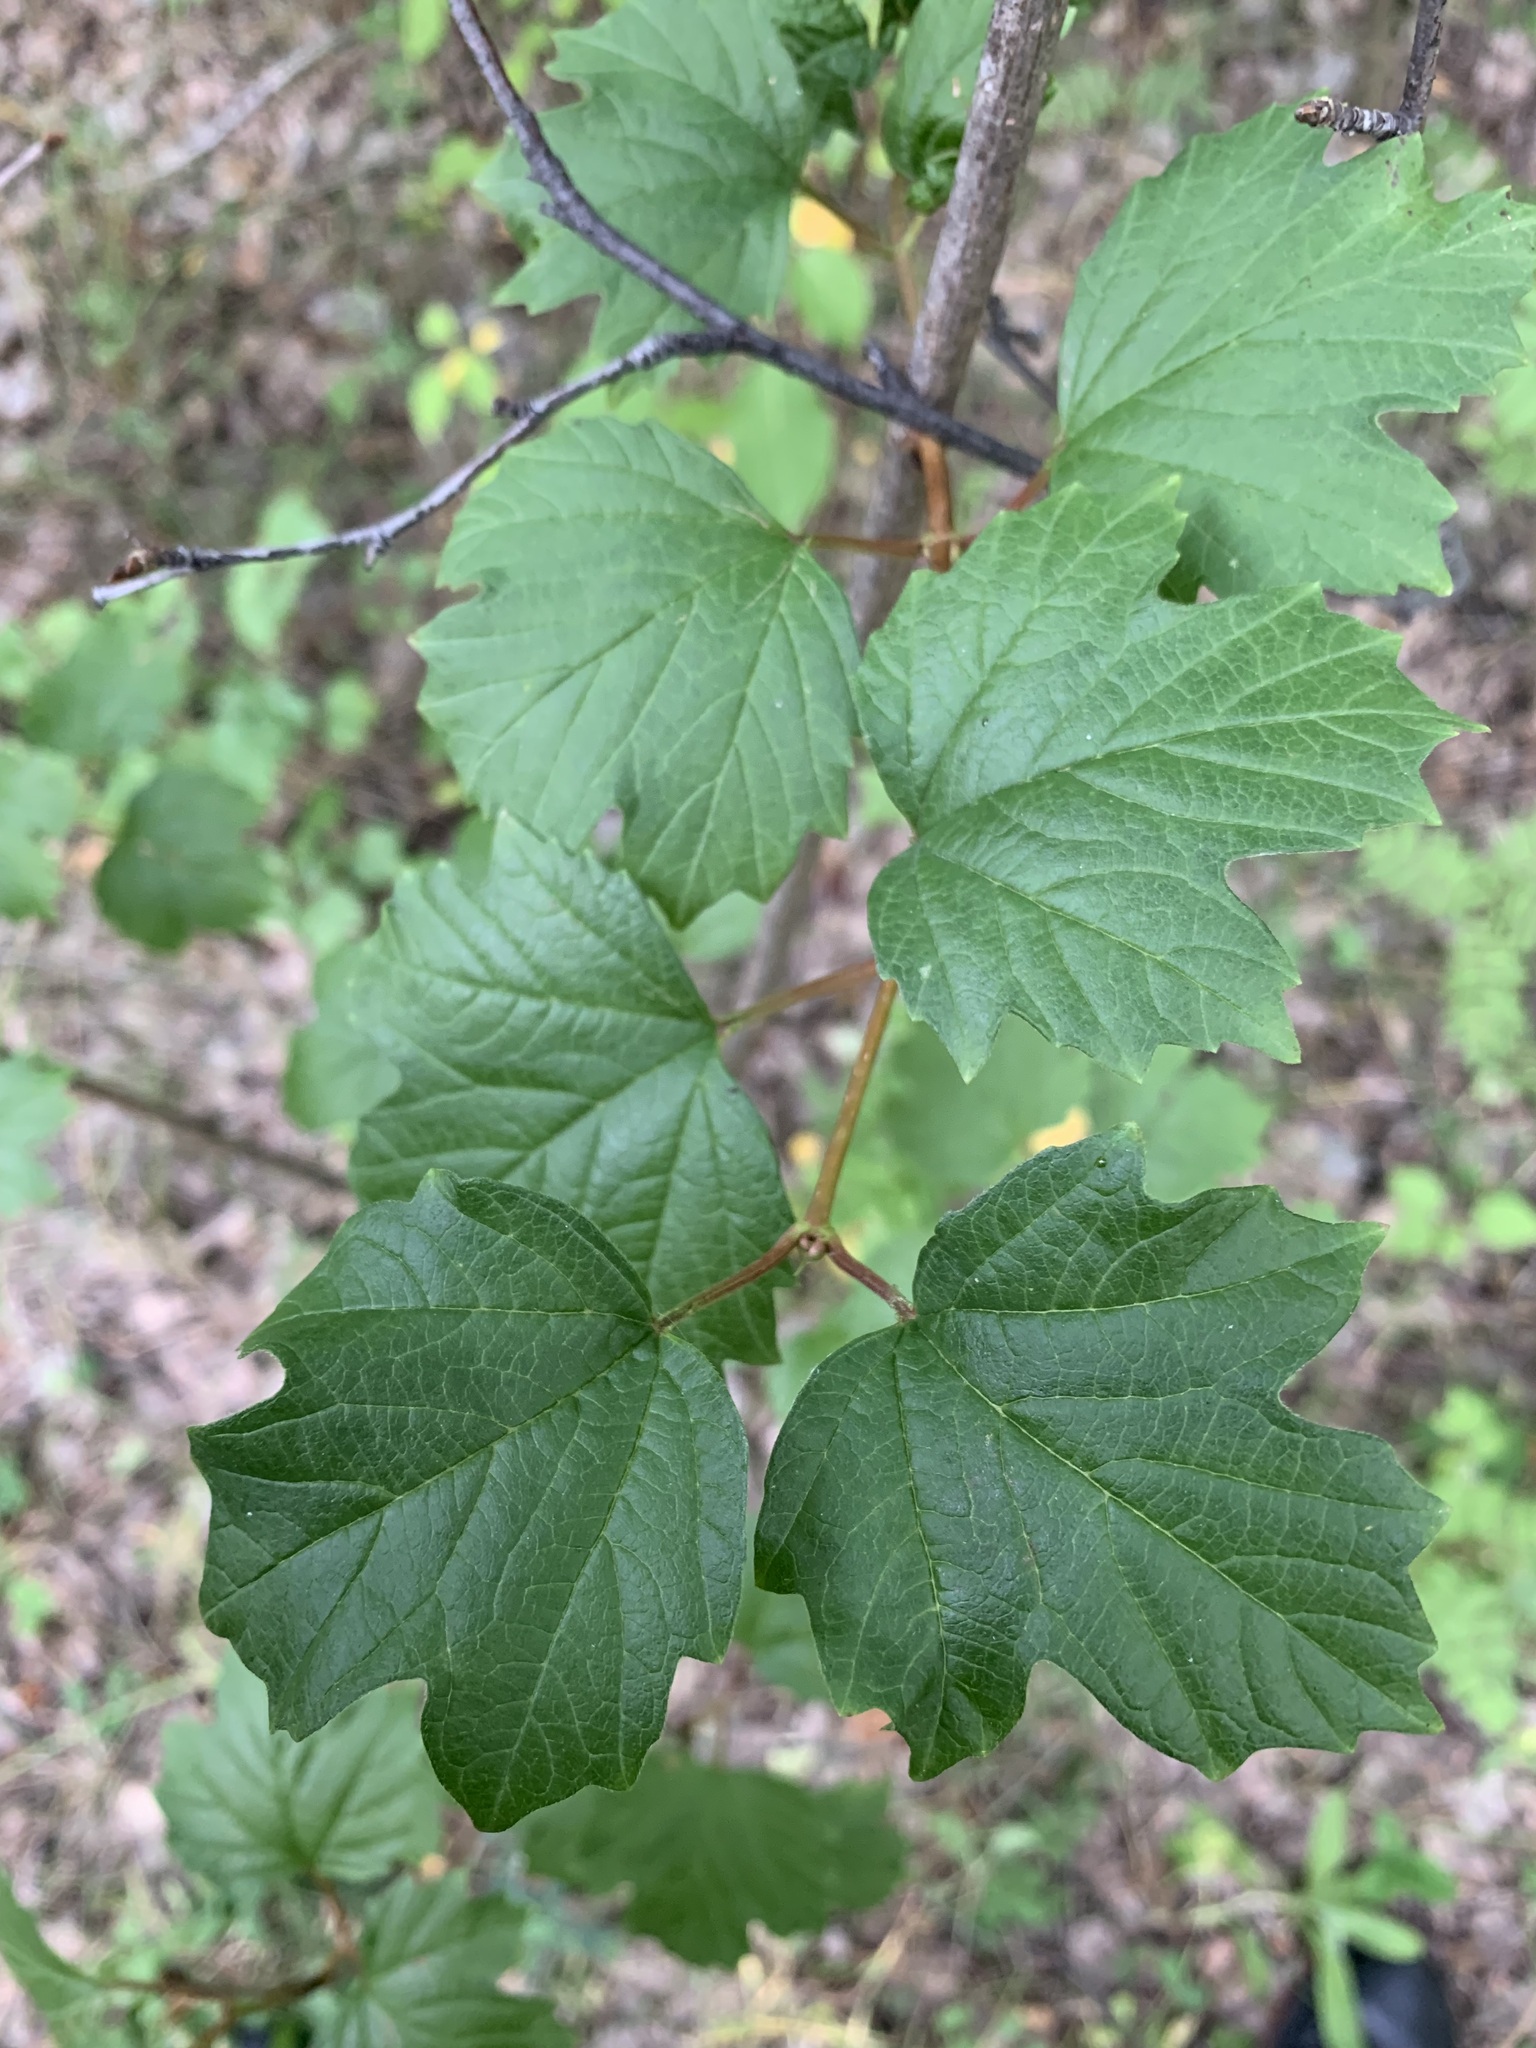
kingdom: Plantae
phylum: Tracheophyta
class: Magnoliopsida
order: Dipsacales
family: Viburnaceae
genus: Viburnum
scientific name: Viburnum opulus
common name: Guelder-rose
